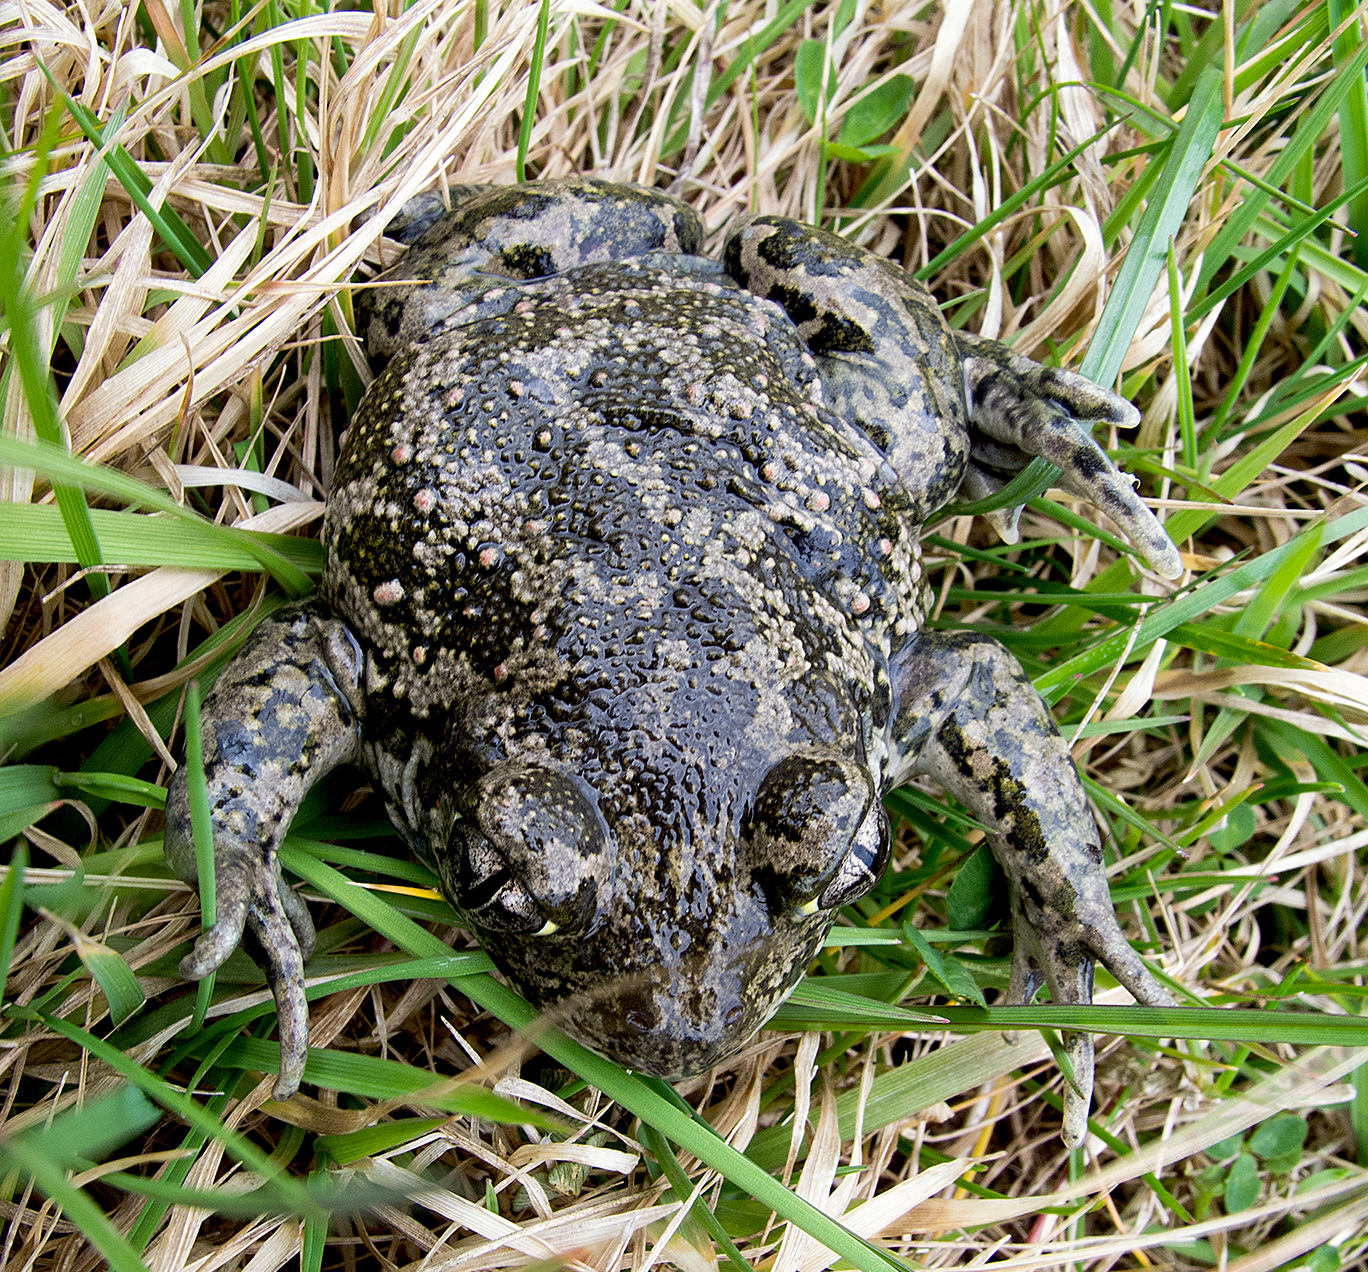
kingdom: Animalia
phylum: Chordata
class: Amphibia
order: Anura
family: Pelobatidae
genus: Pelobates
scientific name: Pelobates balcanicus
